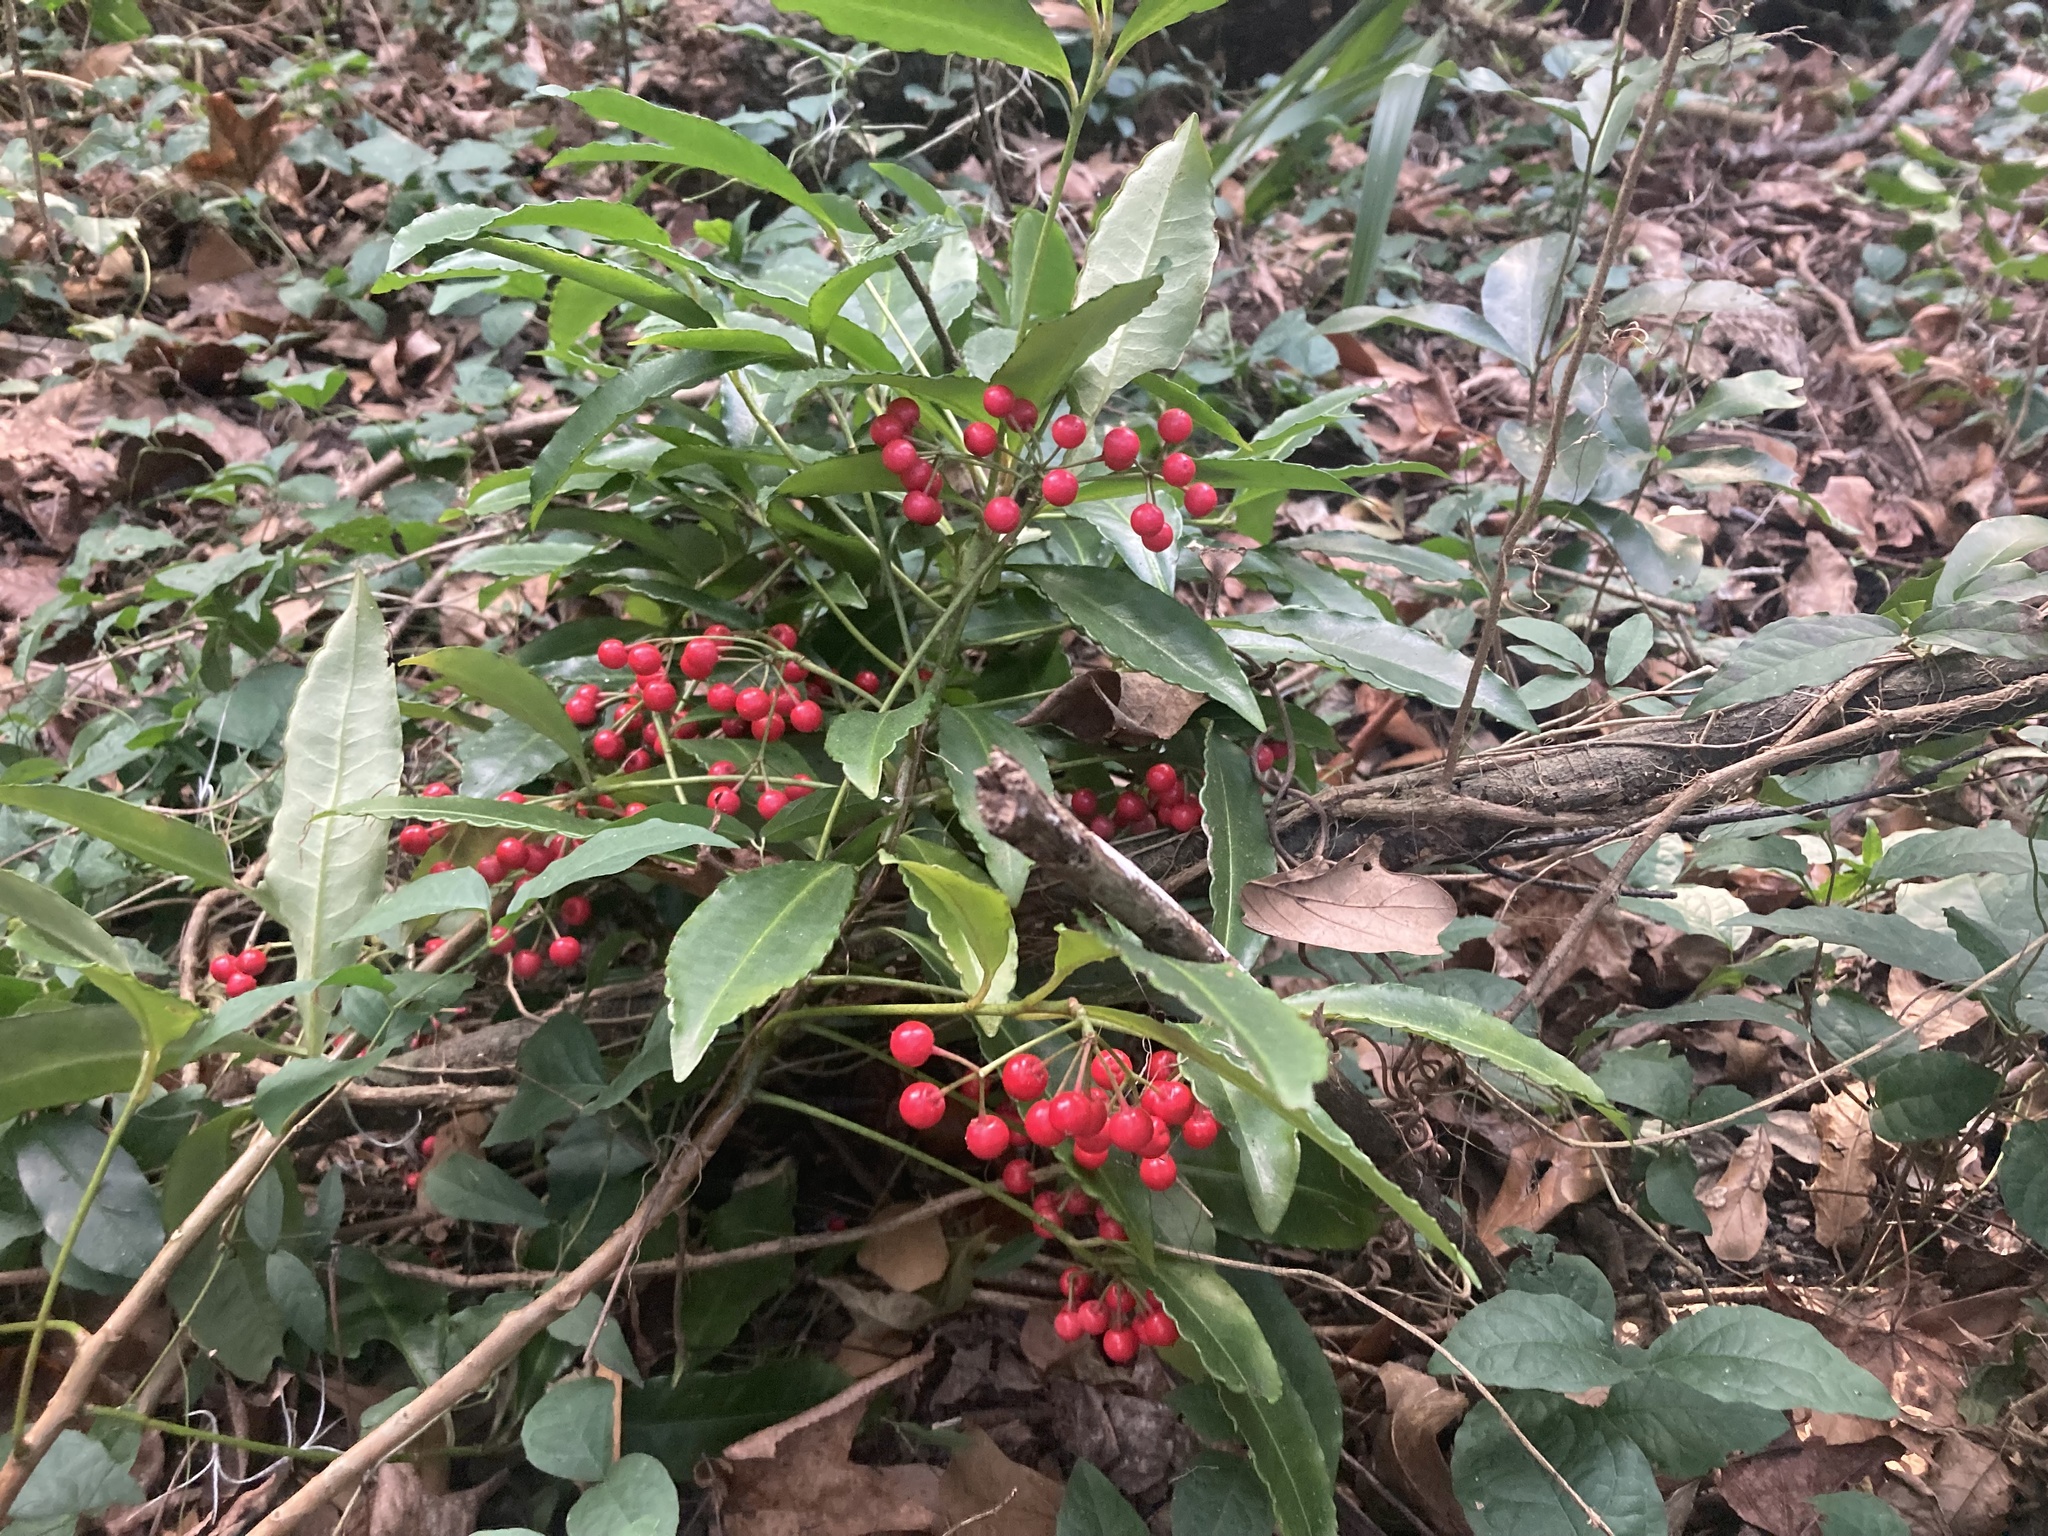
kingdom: Plantae
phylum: Tracheophyta
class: Magnoliopsida
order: Ericales
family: Primulaceae
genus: Ardisia
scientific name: Ardisia crenata
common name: Hen's eyes
